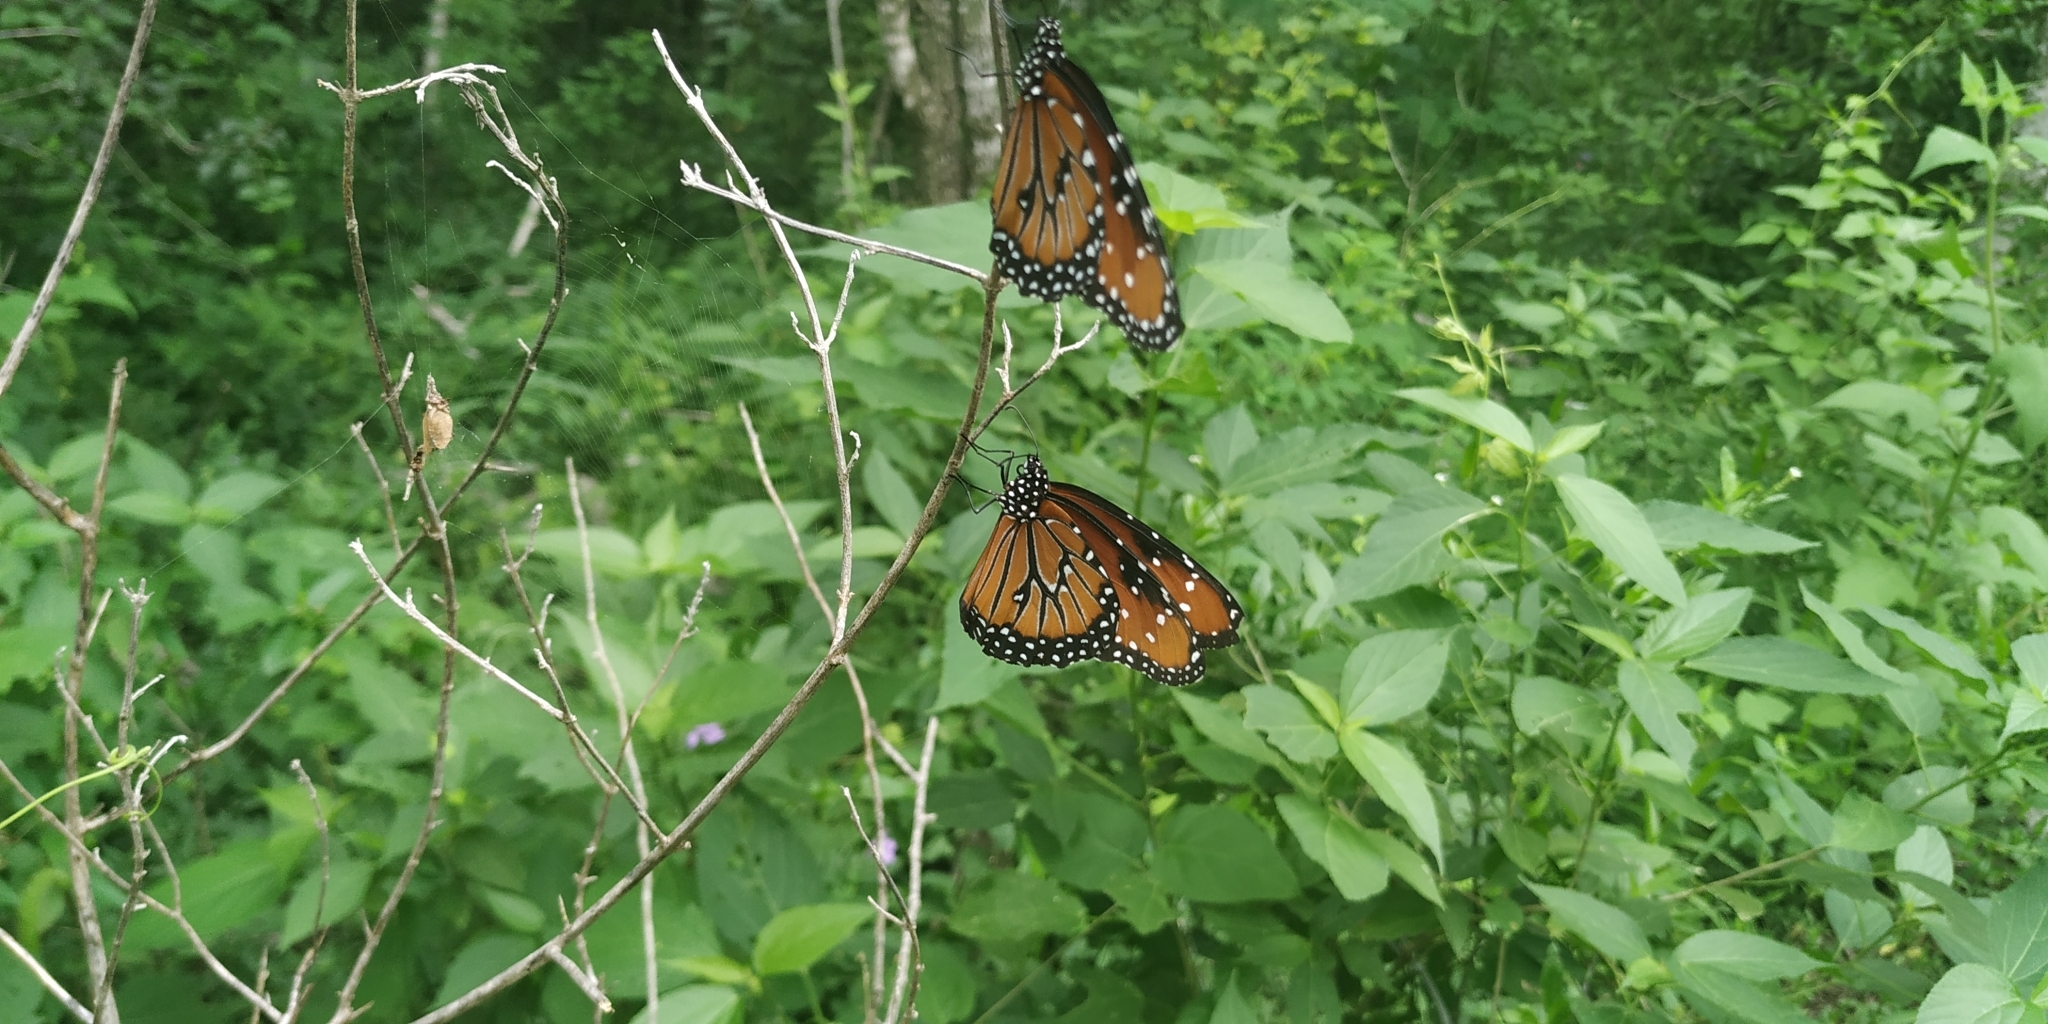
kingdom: Animalia
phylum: Arthropoda
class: Insecta
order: Lepidoptera
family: Nymphalidae
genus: Danaus
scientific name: Danaus gilippus
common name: Queen
